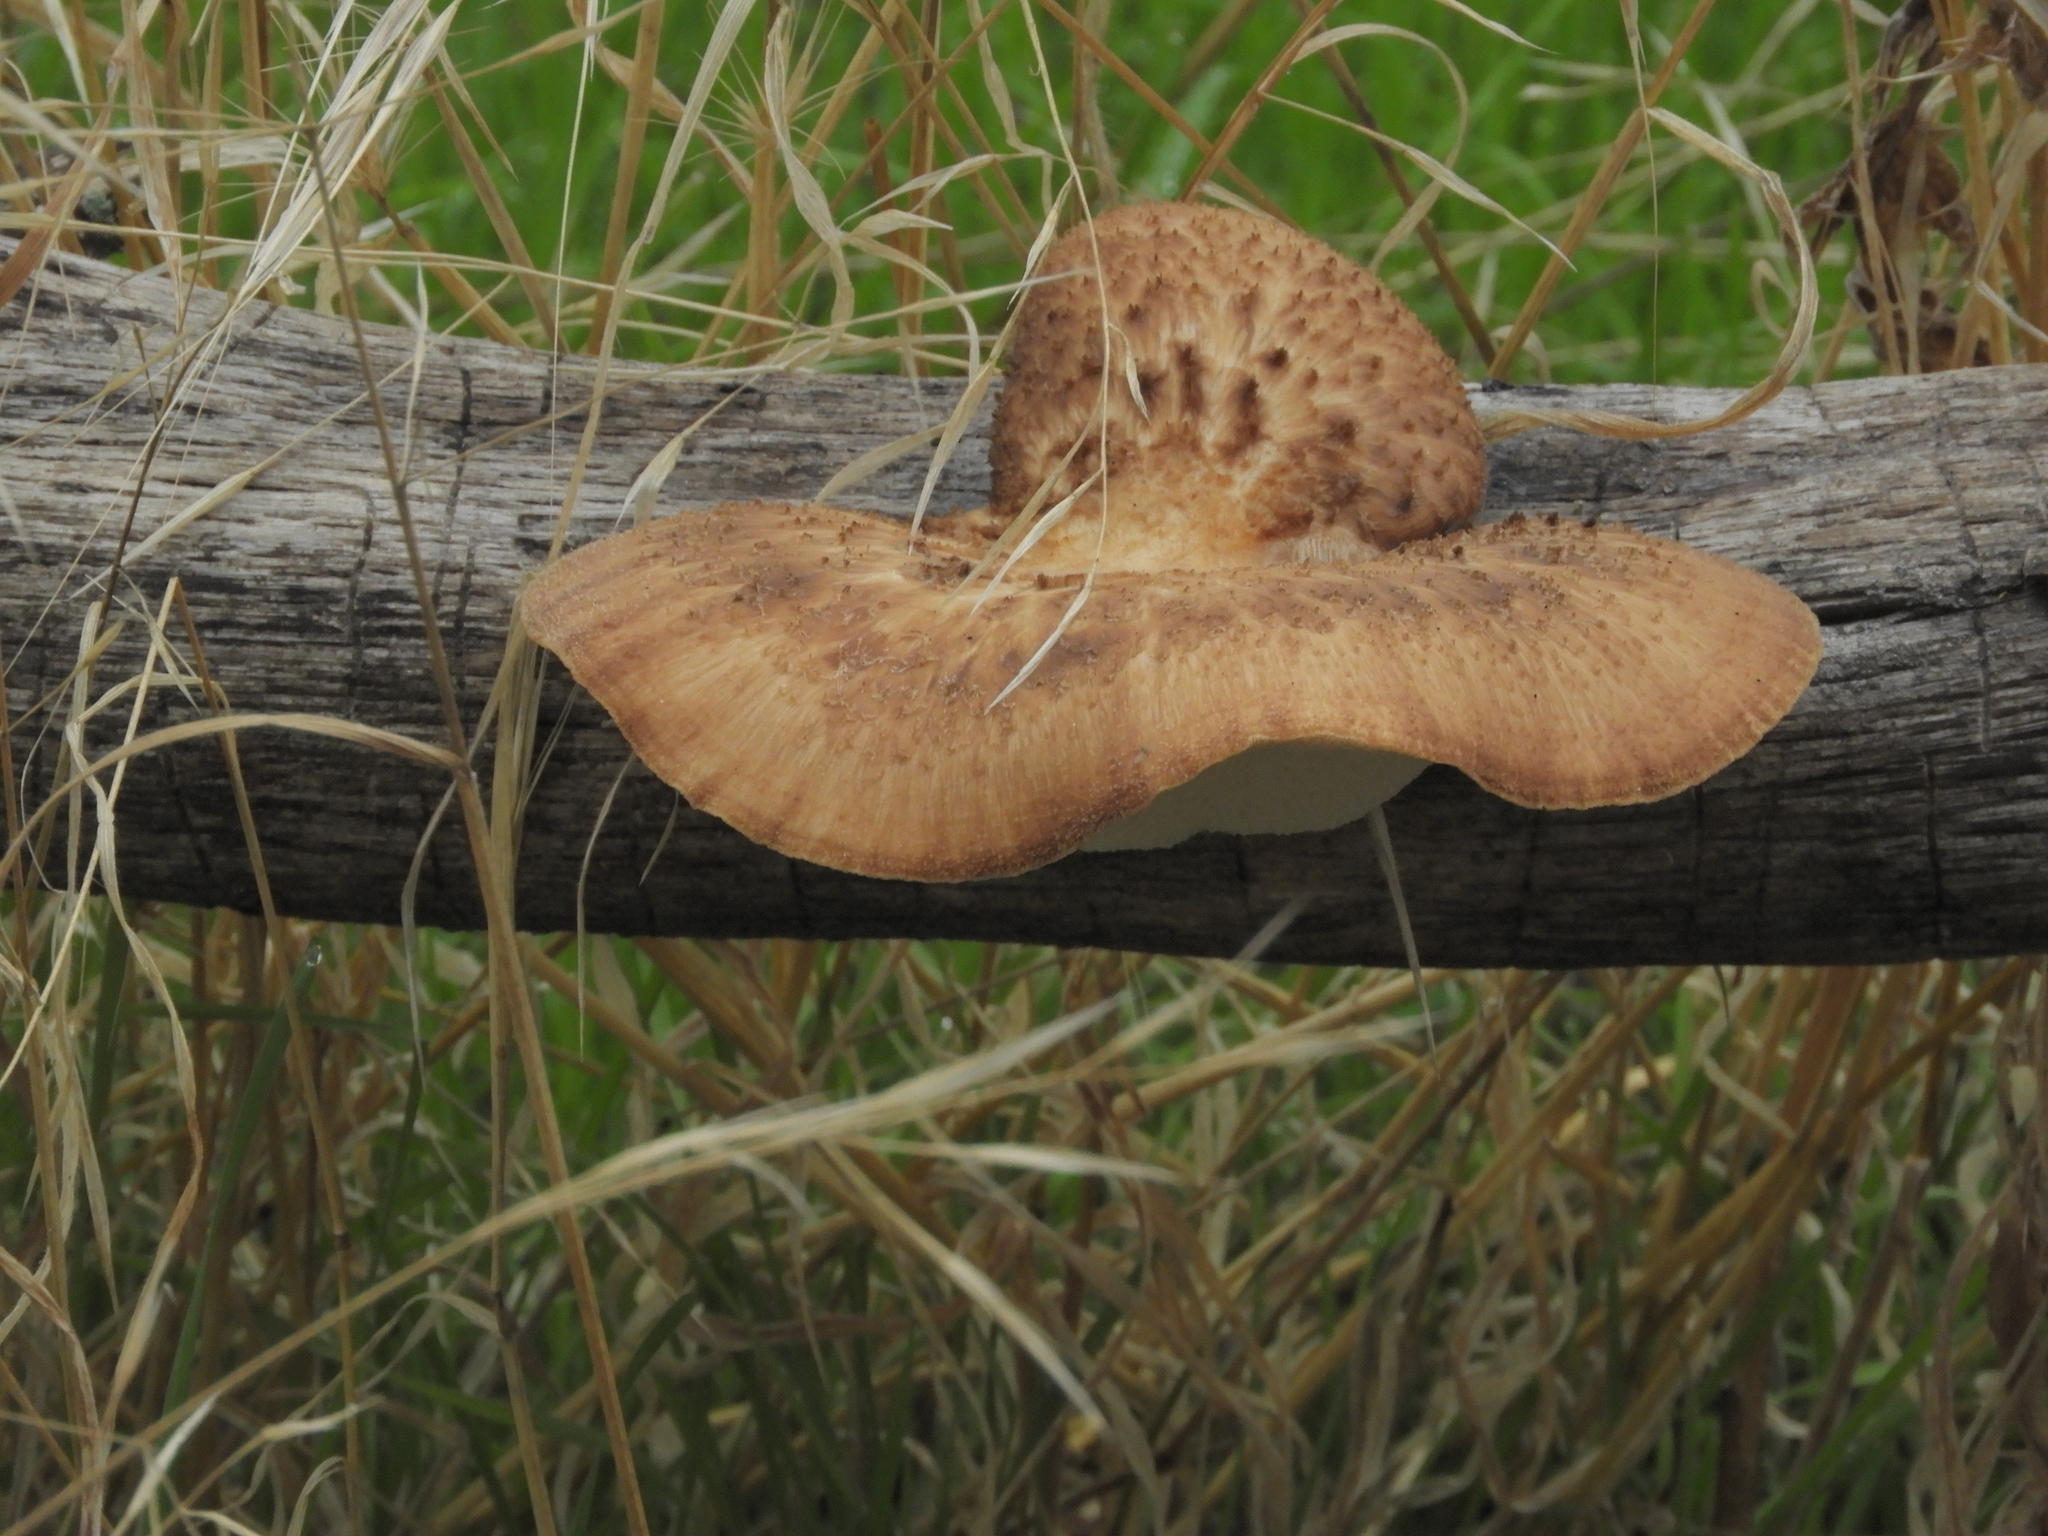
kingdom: Fungi
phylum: Basidiomycota
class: Agaricomycetes
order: Polyporales
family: Phanerochaetaceae
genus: Bjerkandera
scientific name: Bjerkandera fumosa
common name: Big smoky bracket
